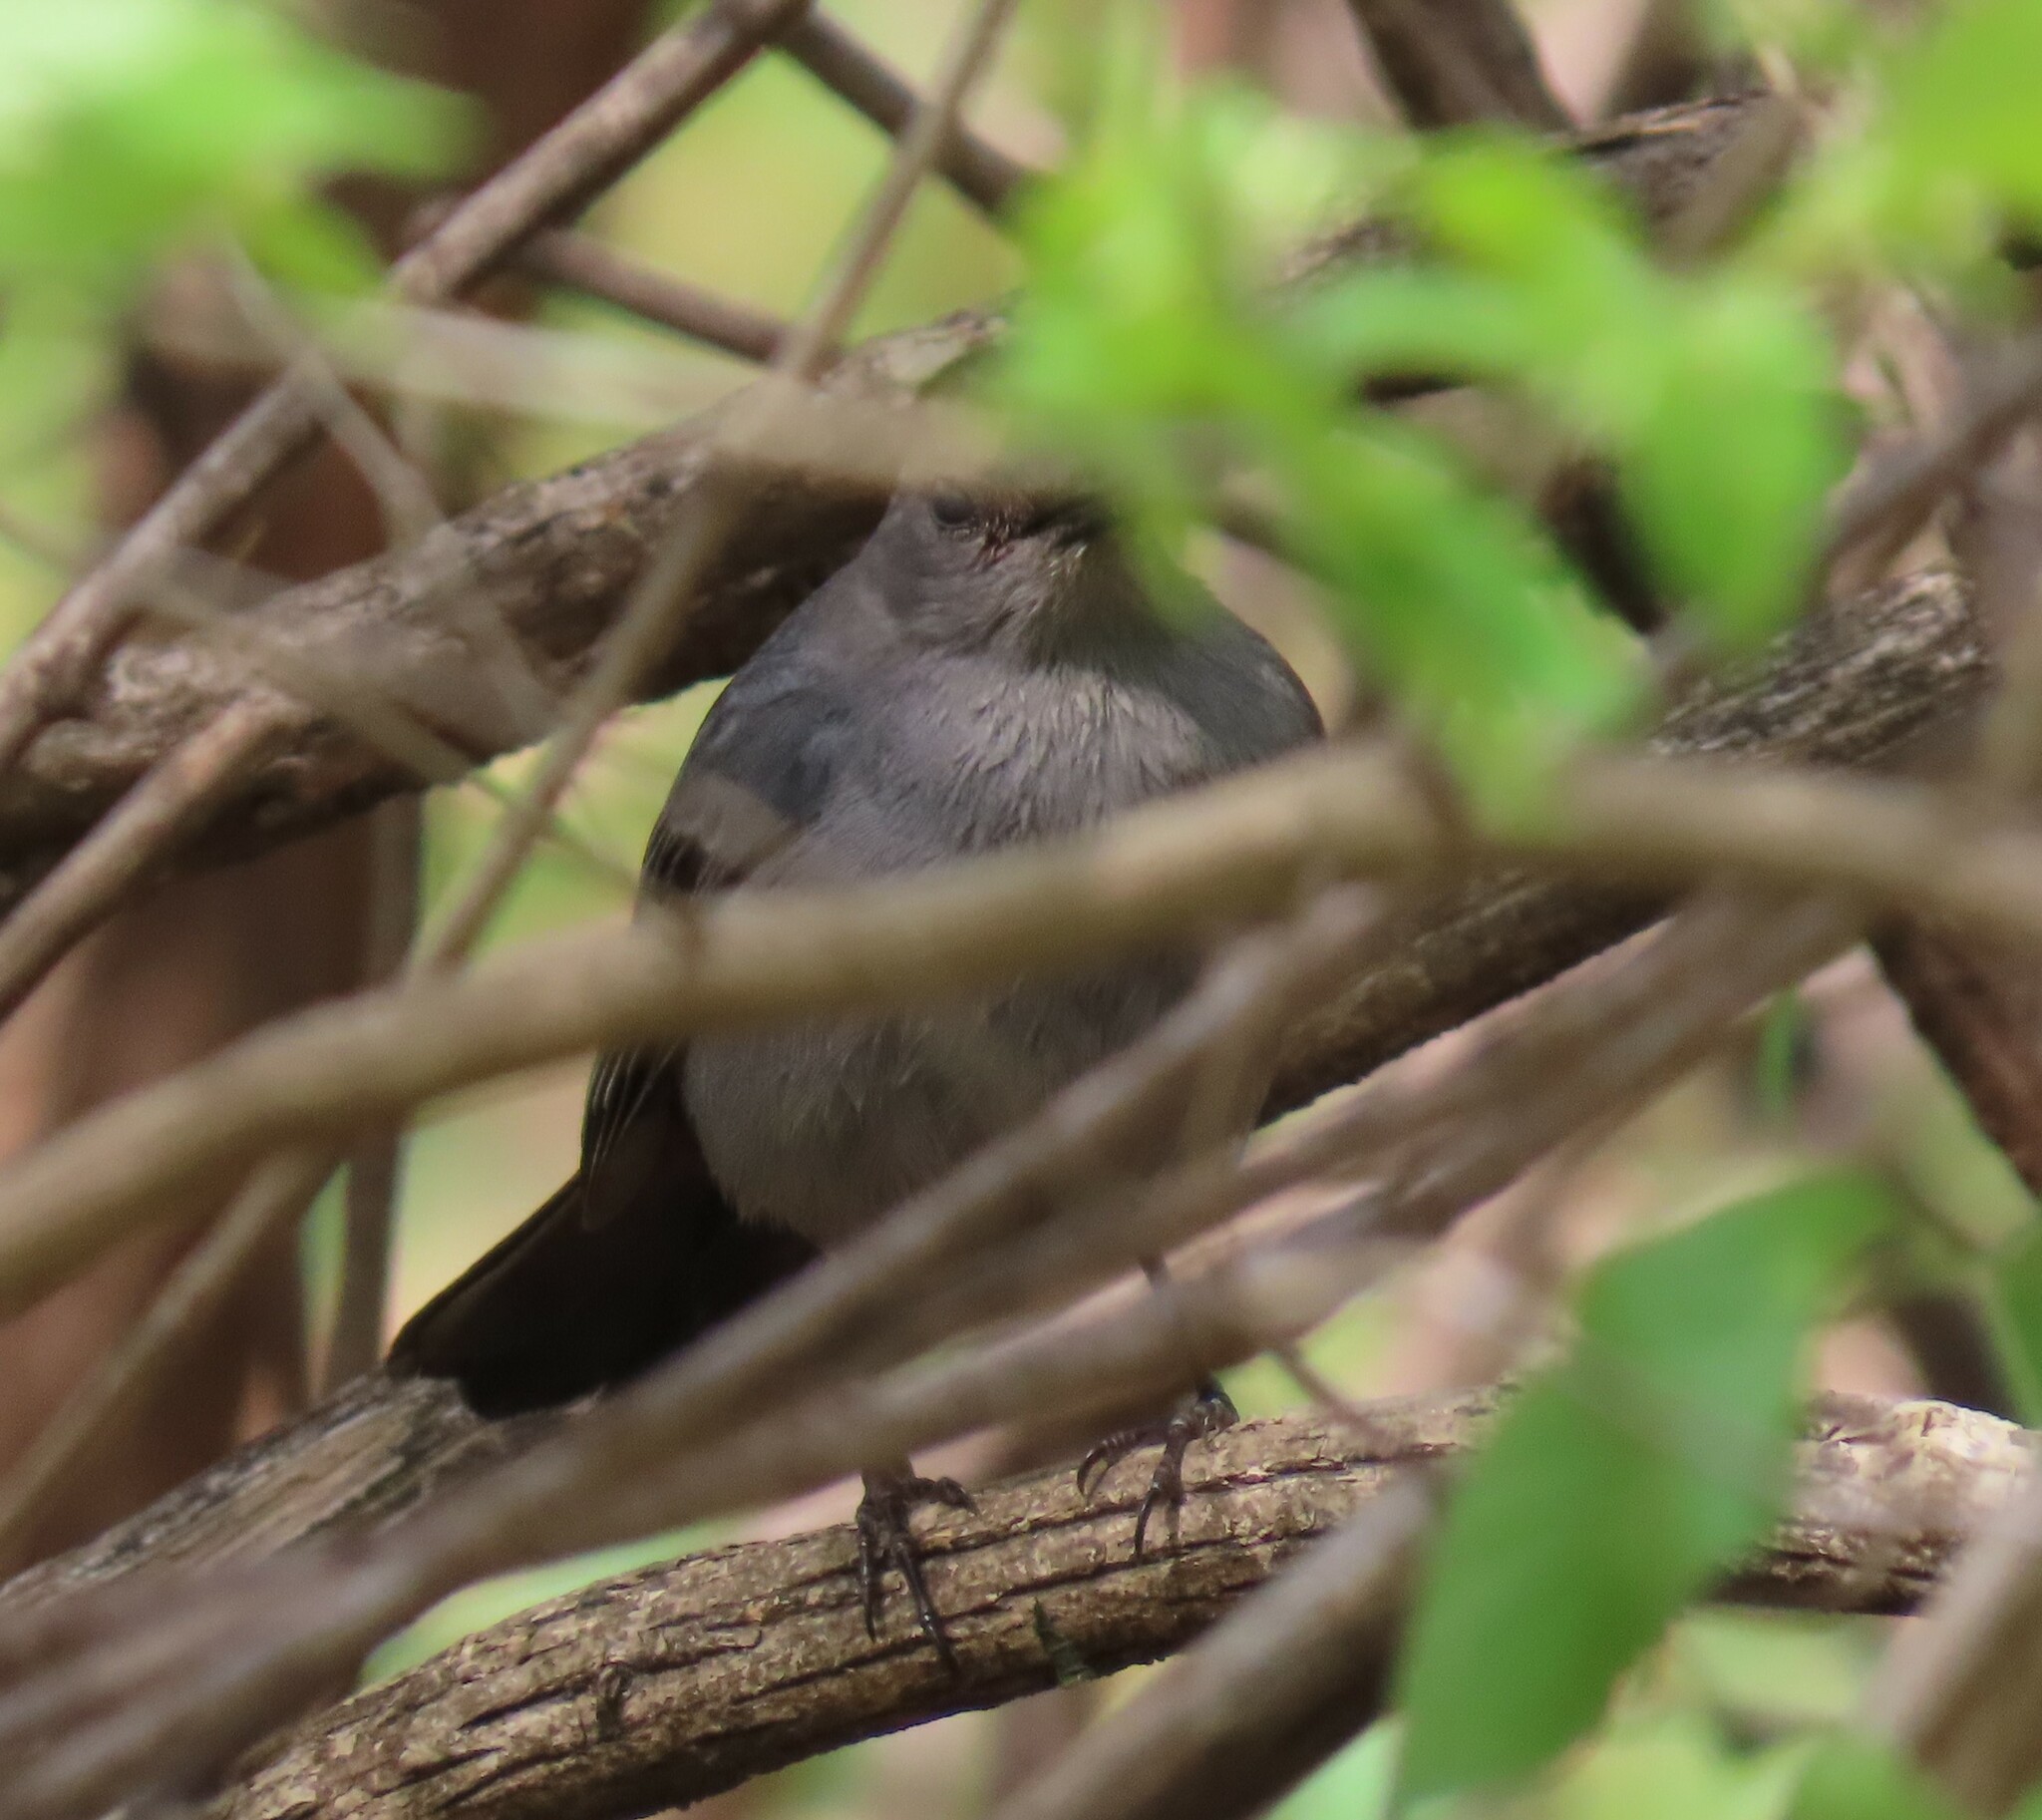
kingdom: Animalia
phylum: Chordata
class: Aves
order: Passeriformes
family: Mimidae
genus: Dumetella
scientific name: Dumetella carolinensis
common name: Gray catbird
